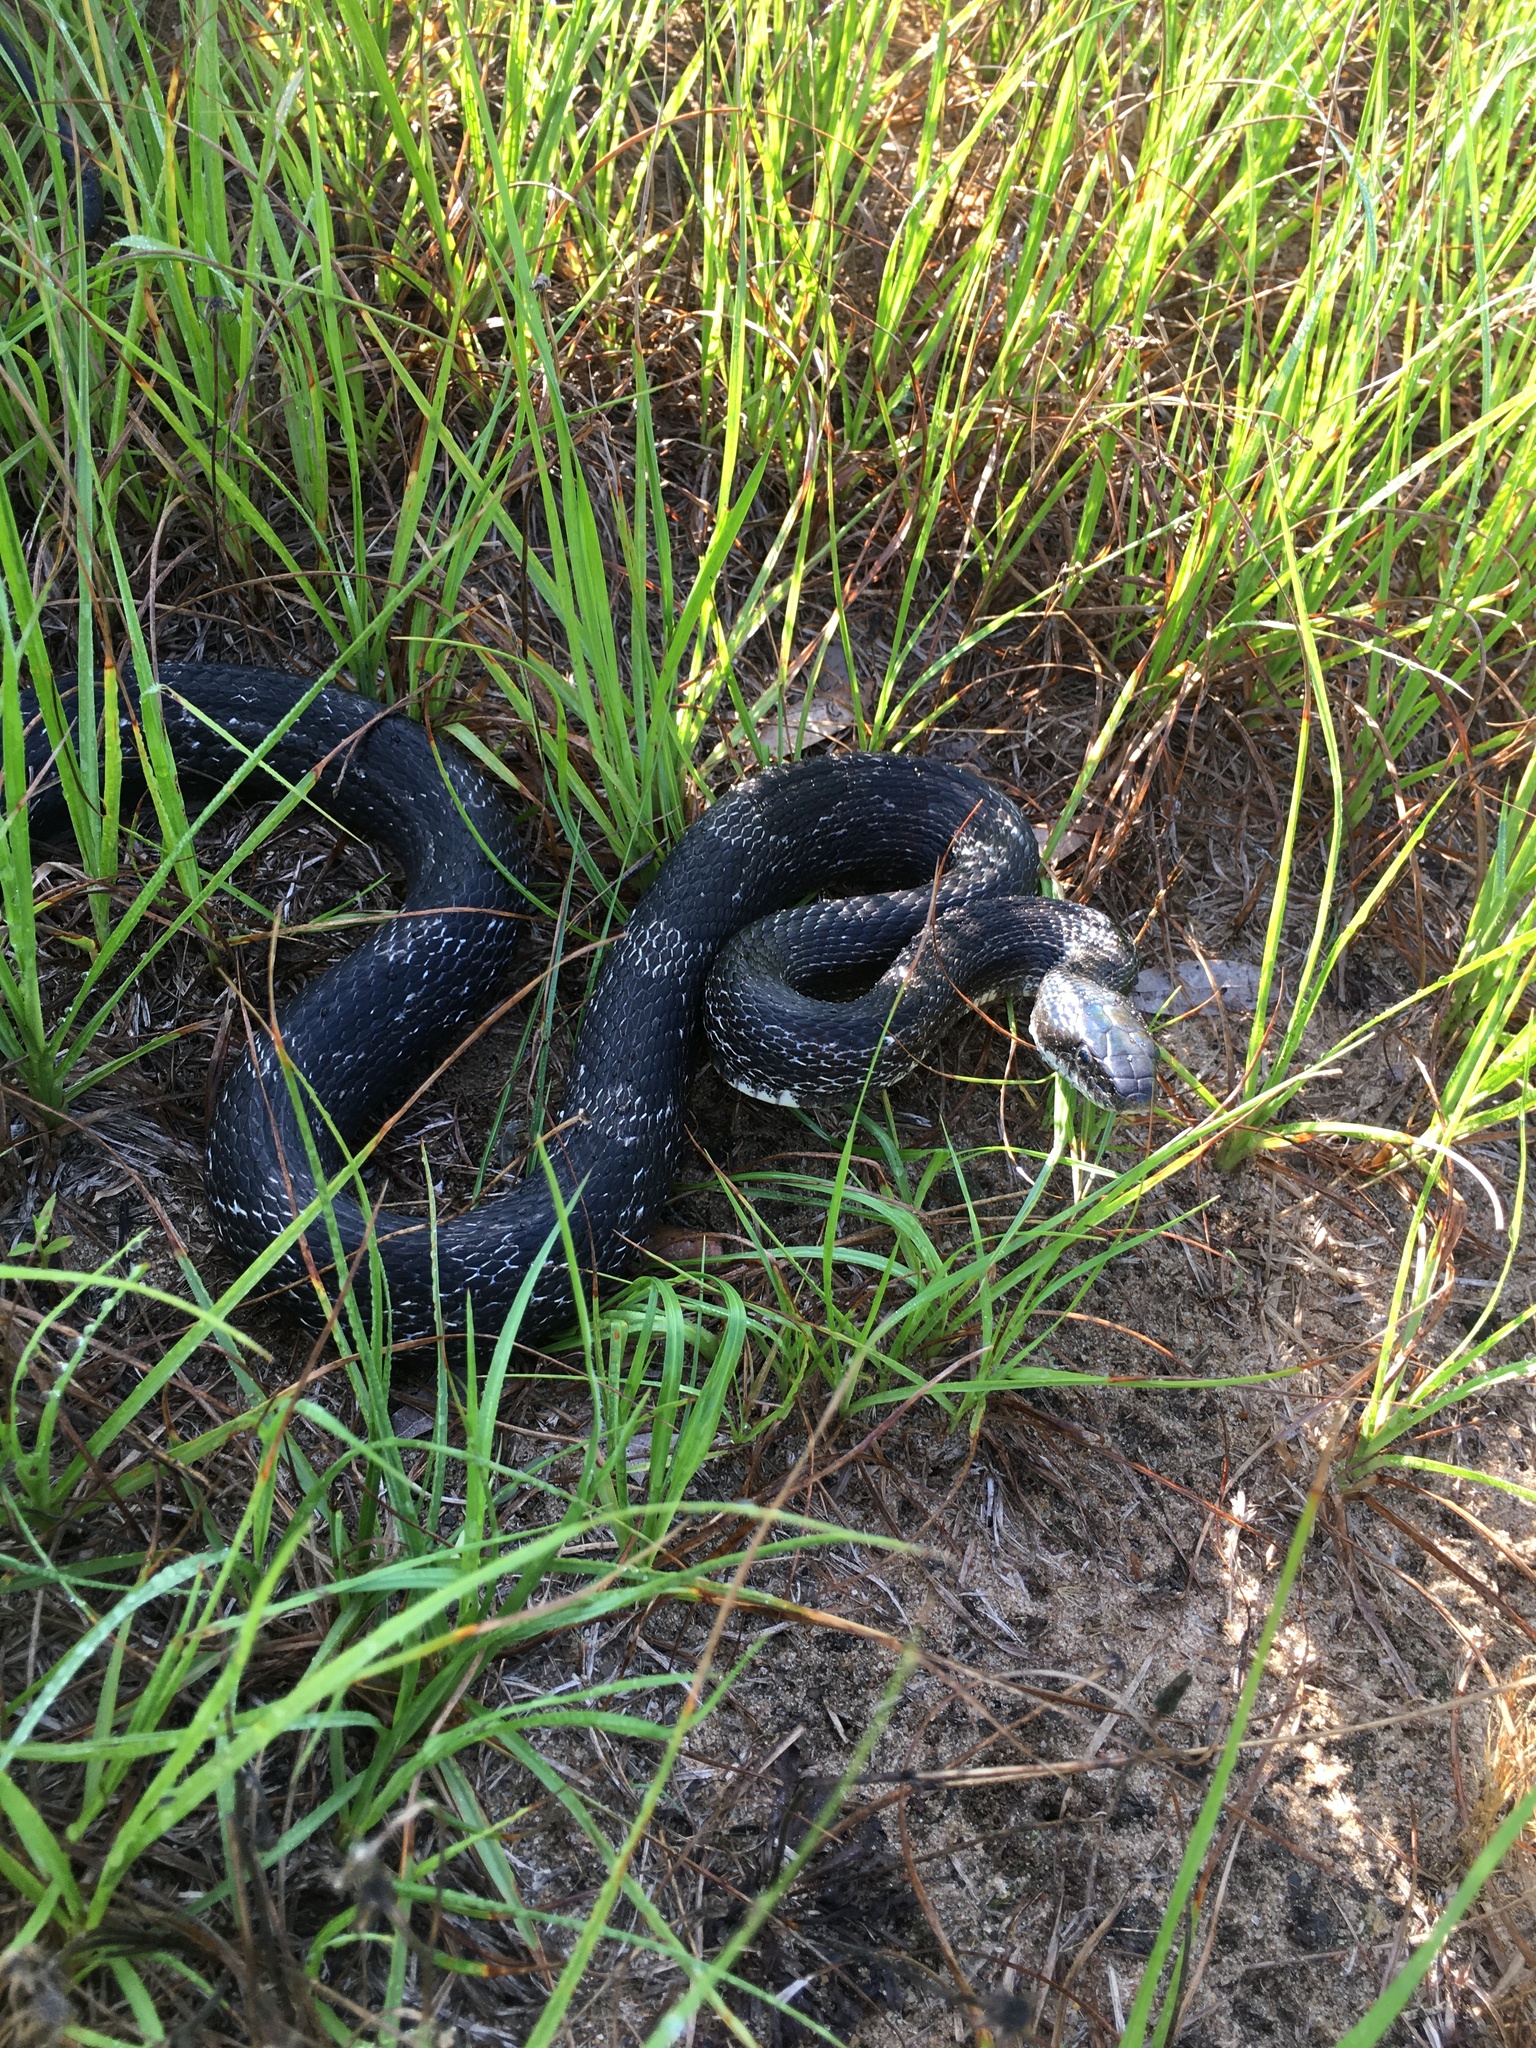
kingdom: Animalia
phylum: Chordata
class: Squamata
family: Colubridae
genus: Pantherophis
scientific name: Pantherophis alleghaniensis
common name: Eastern rat snake
